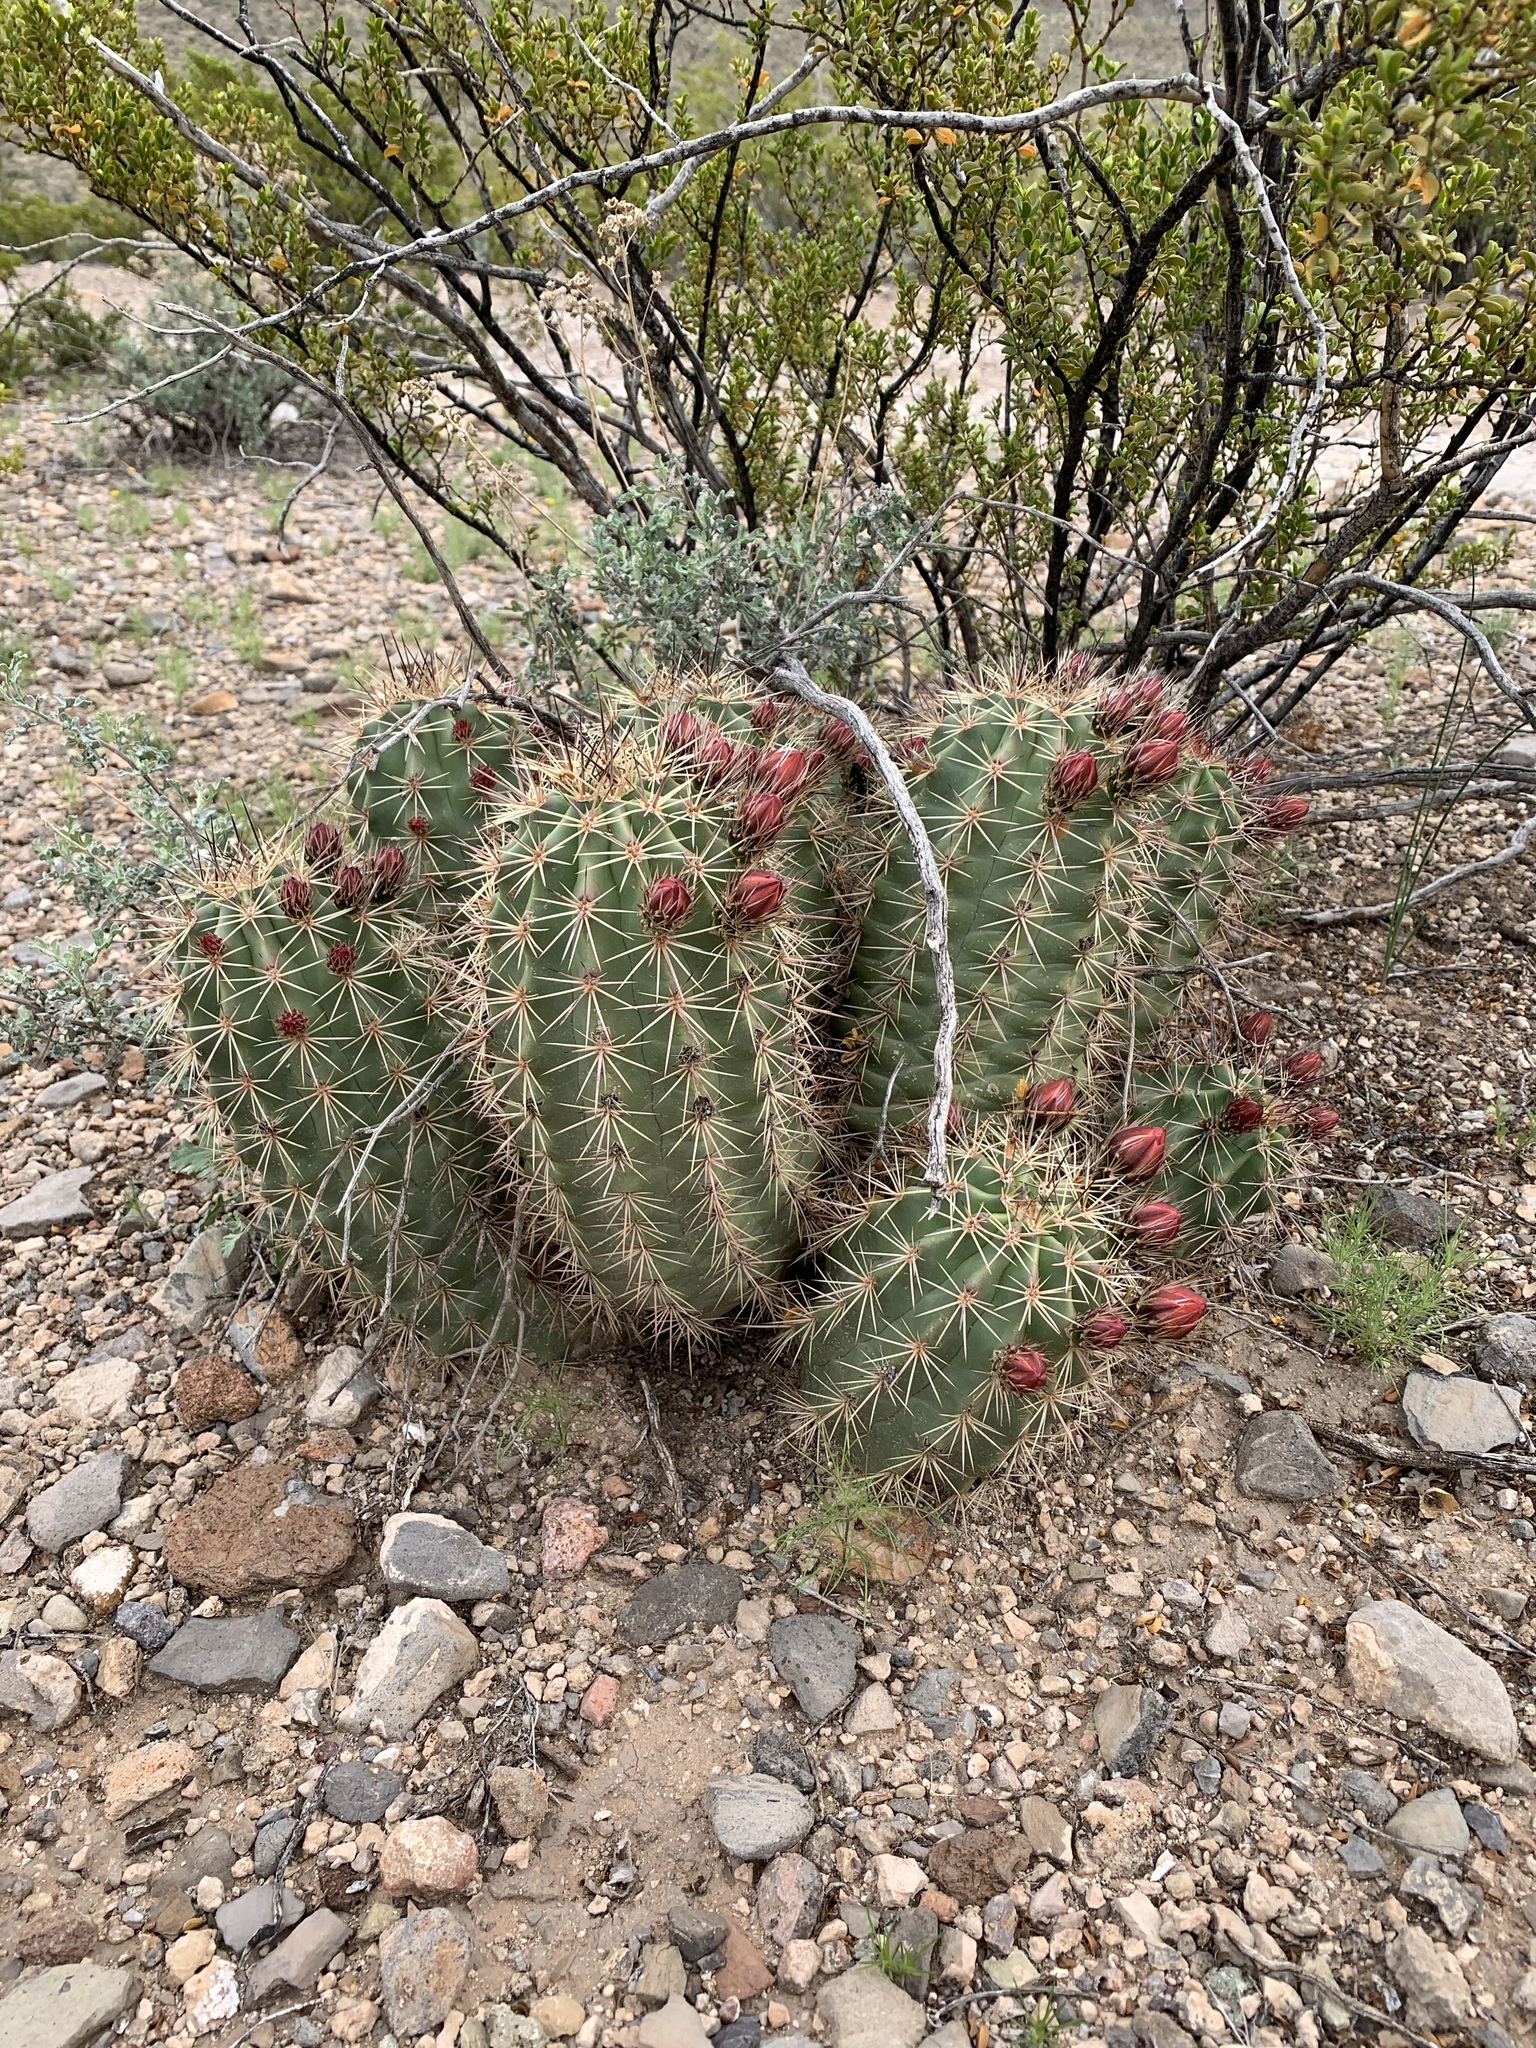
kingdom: Plantae
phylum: Tracheophyta
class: Magnoliopsida
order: Caryophyllales
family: Cactaceae
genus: Echinocereus
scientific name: Echinocereus coccineus
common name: Scarlet hedgehog cactus
